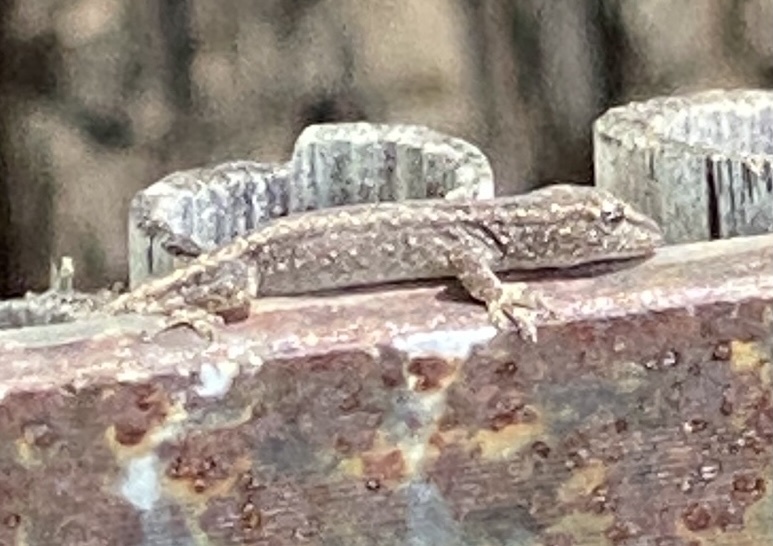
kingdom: Animalia
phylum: Chordata
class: Squamata
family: Gekkonidae
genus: Lygodactylus
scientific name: Lygodactylus bradfieldi
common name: Bradfield's dwarf gecko
